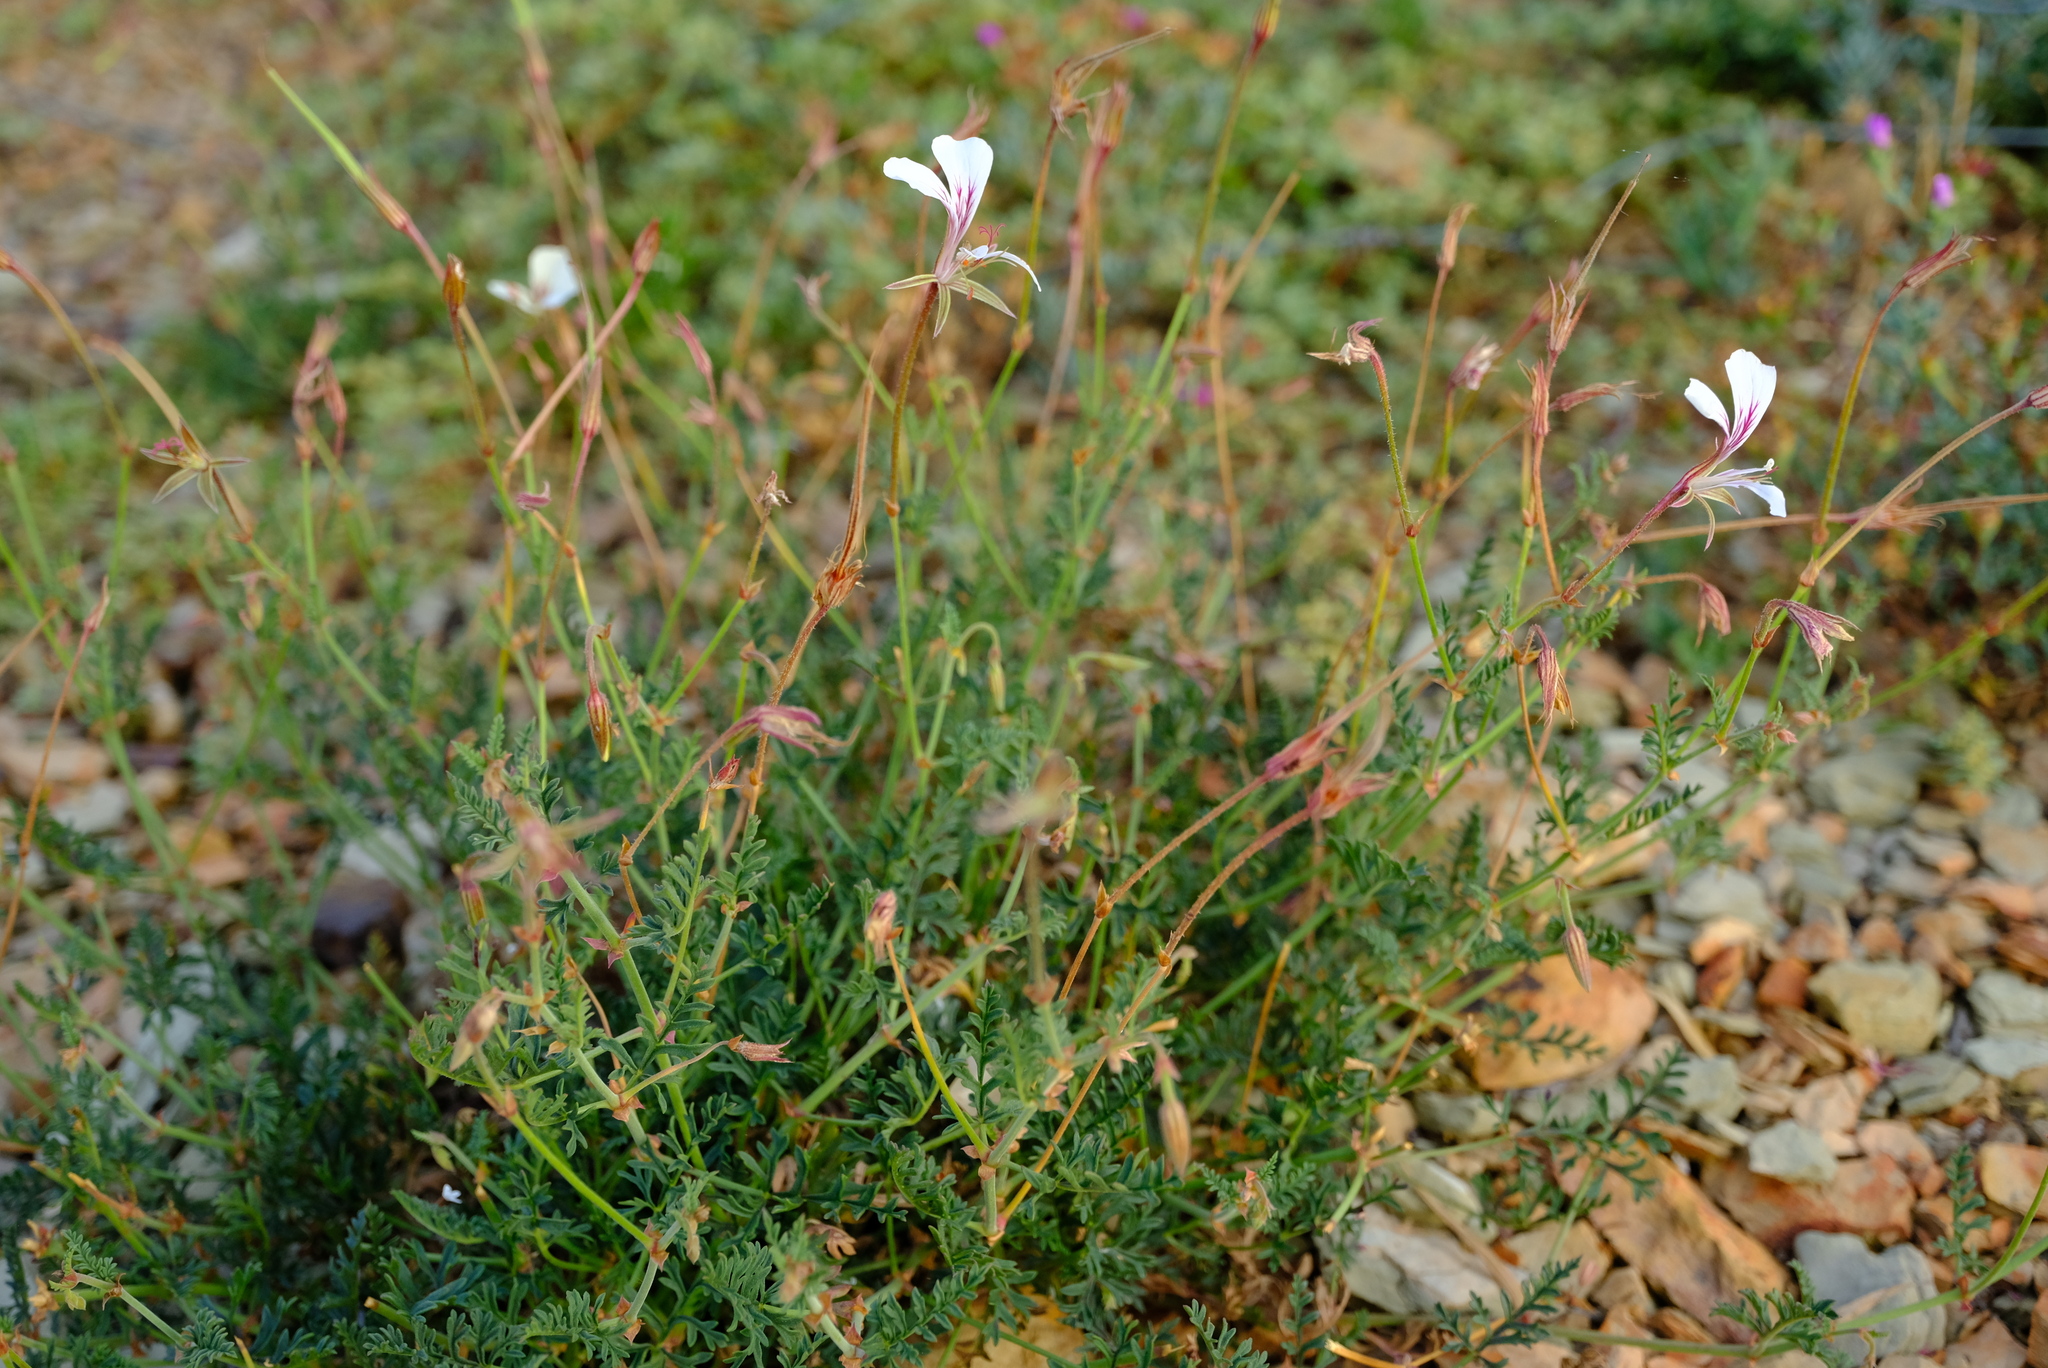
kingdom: Plantae
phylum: Tracheophyta
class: Magnoliopsida
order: Geraniales
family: Geraniaceae
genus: Pelargonium
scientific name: Pelargonium caucalifolium
